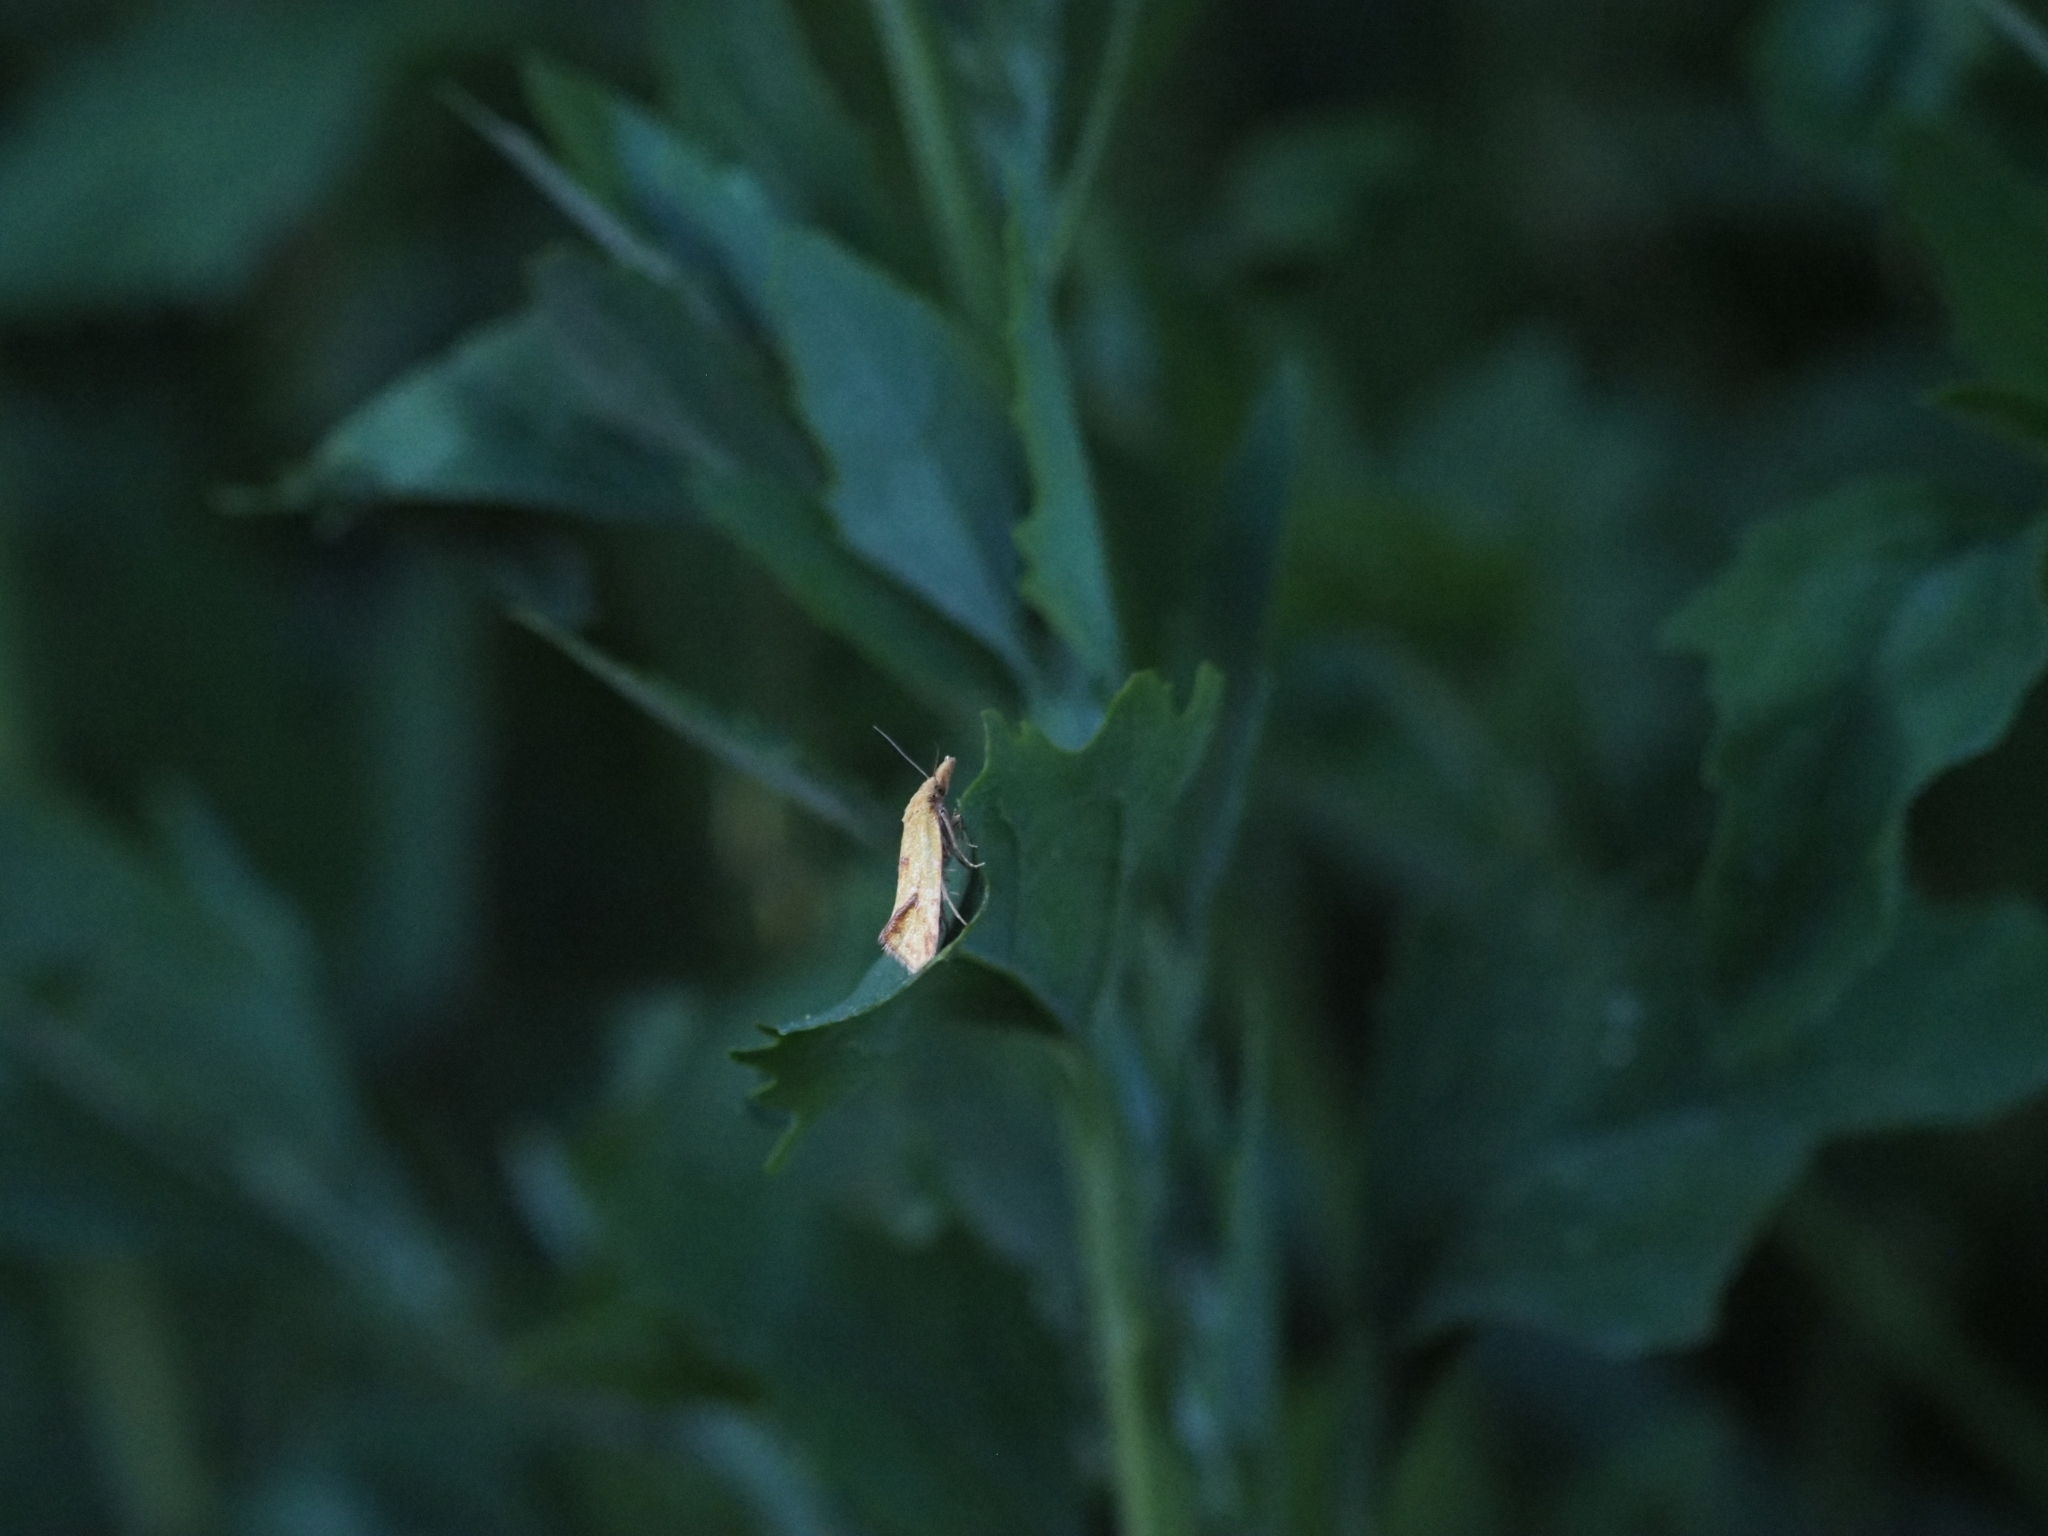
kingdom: Animalia
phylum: Arthropoda
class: Insecta
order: Lepidoptera
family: Tortricidae
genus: Agapeta
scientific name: Agapeta hamana
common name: Common yellow conch
